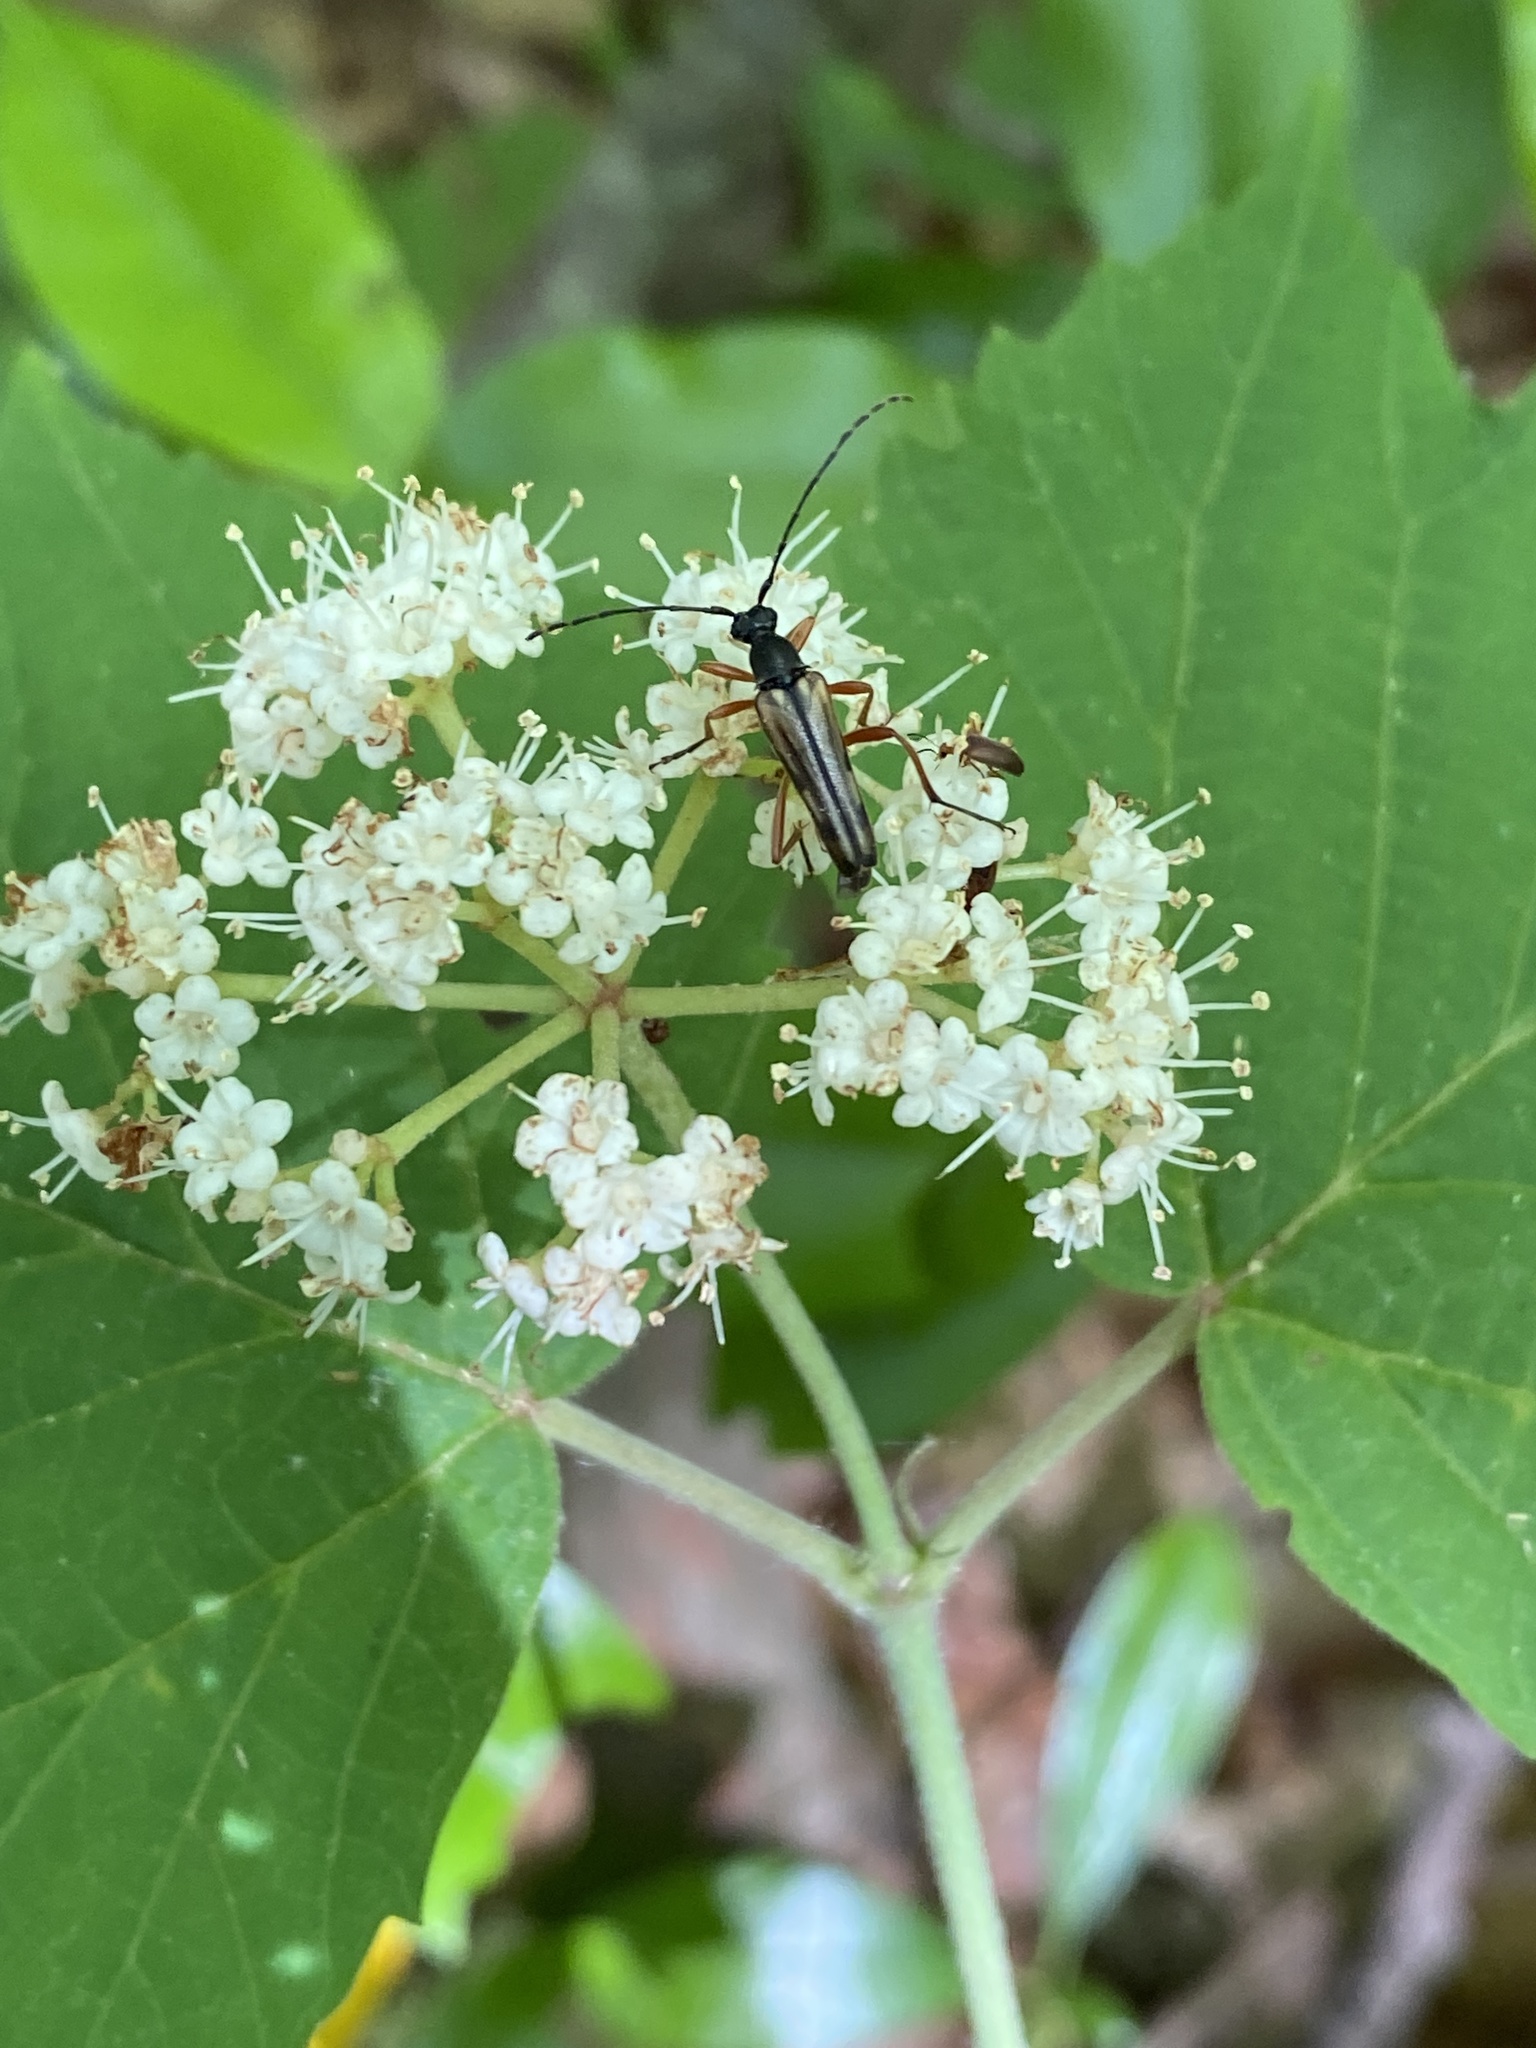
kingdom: Animalia
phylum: Arthropoda
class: Insecta
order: Coleoptera
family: Cerambycidae
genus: Analeptura
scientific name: Analeptura lineola
